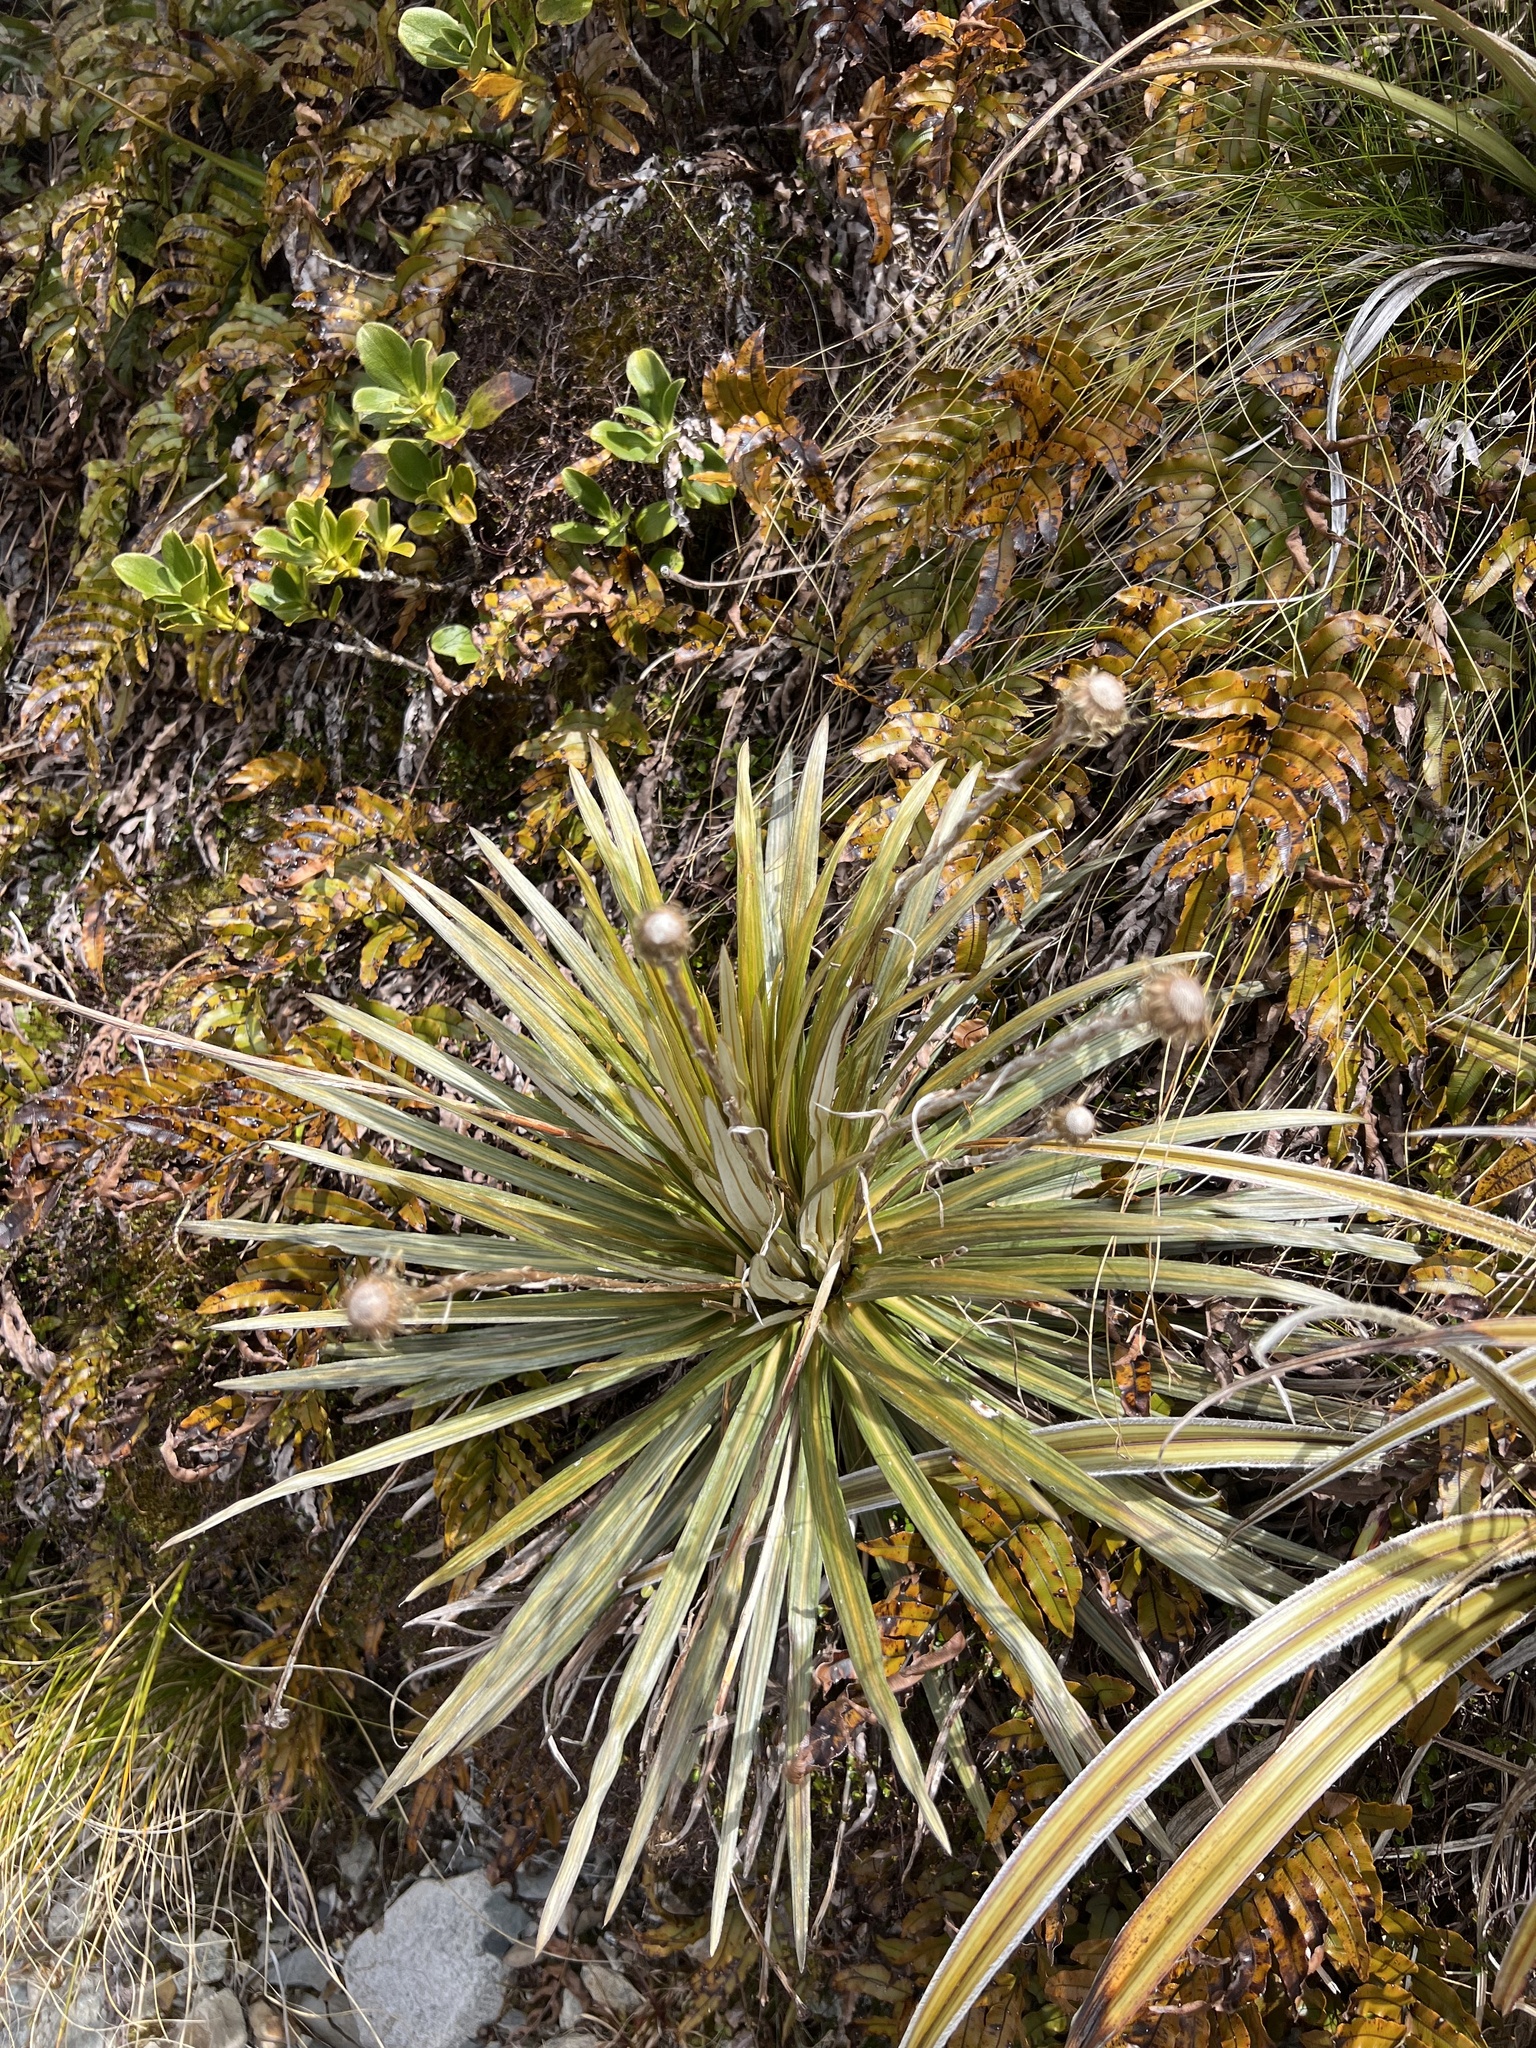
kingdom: Plantae
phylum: Tracheophyta
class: Magnoliopsida
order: Asterales
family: Asteraceae
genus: Celmisia
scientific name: Celmisia armstrongii
